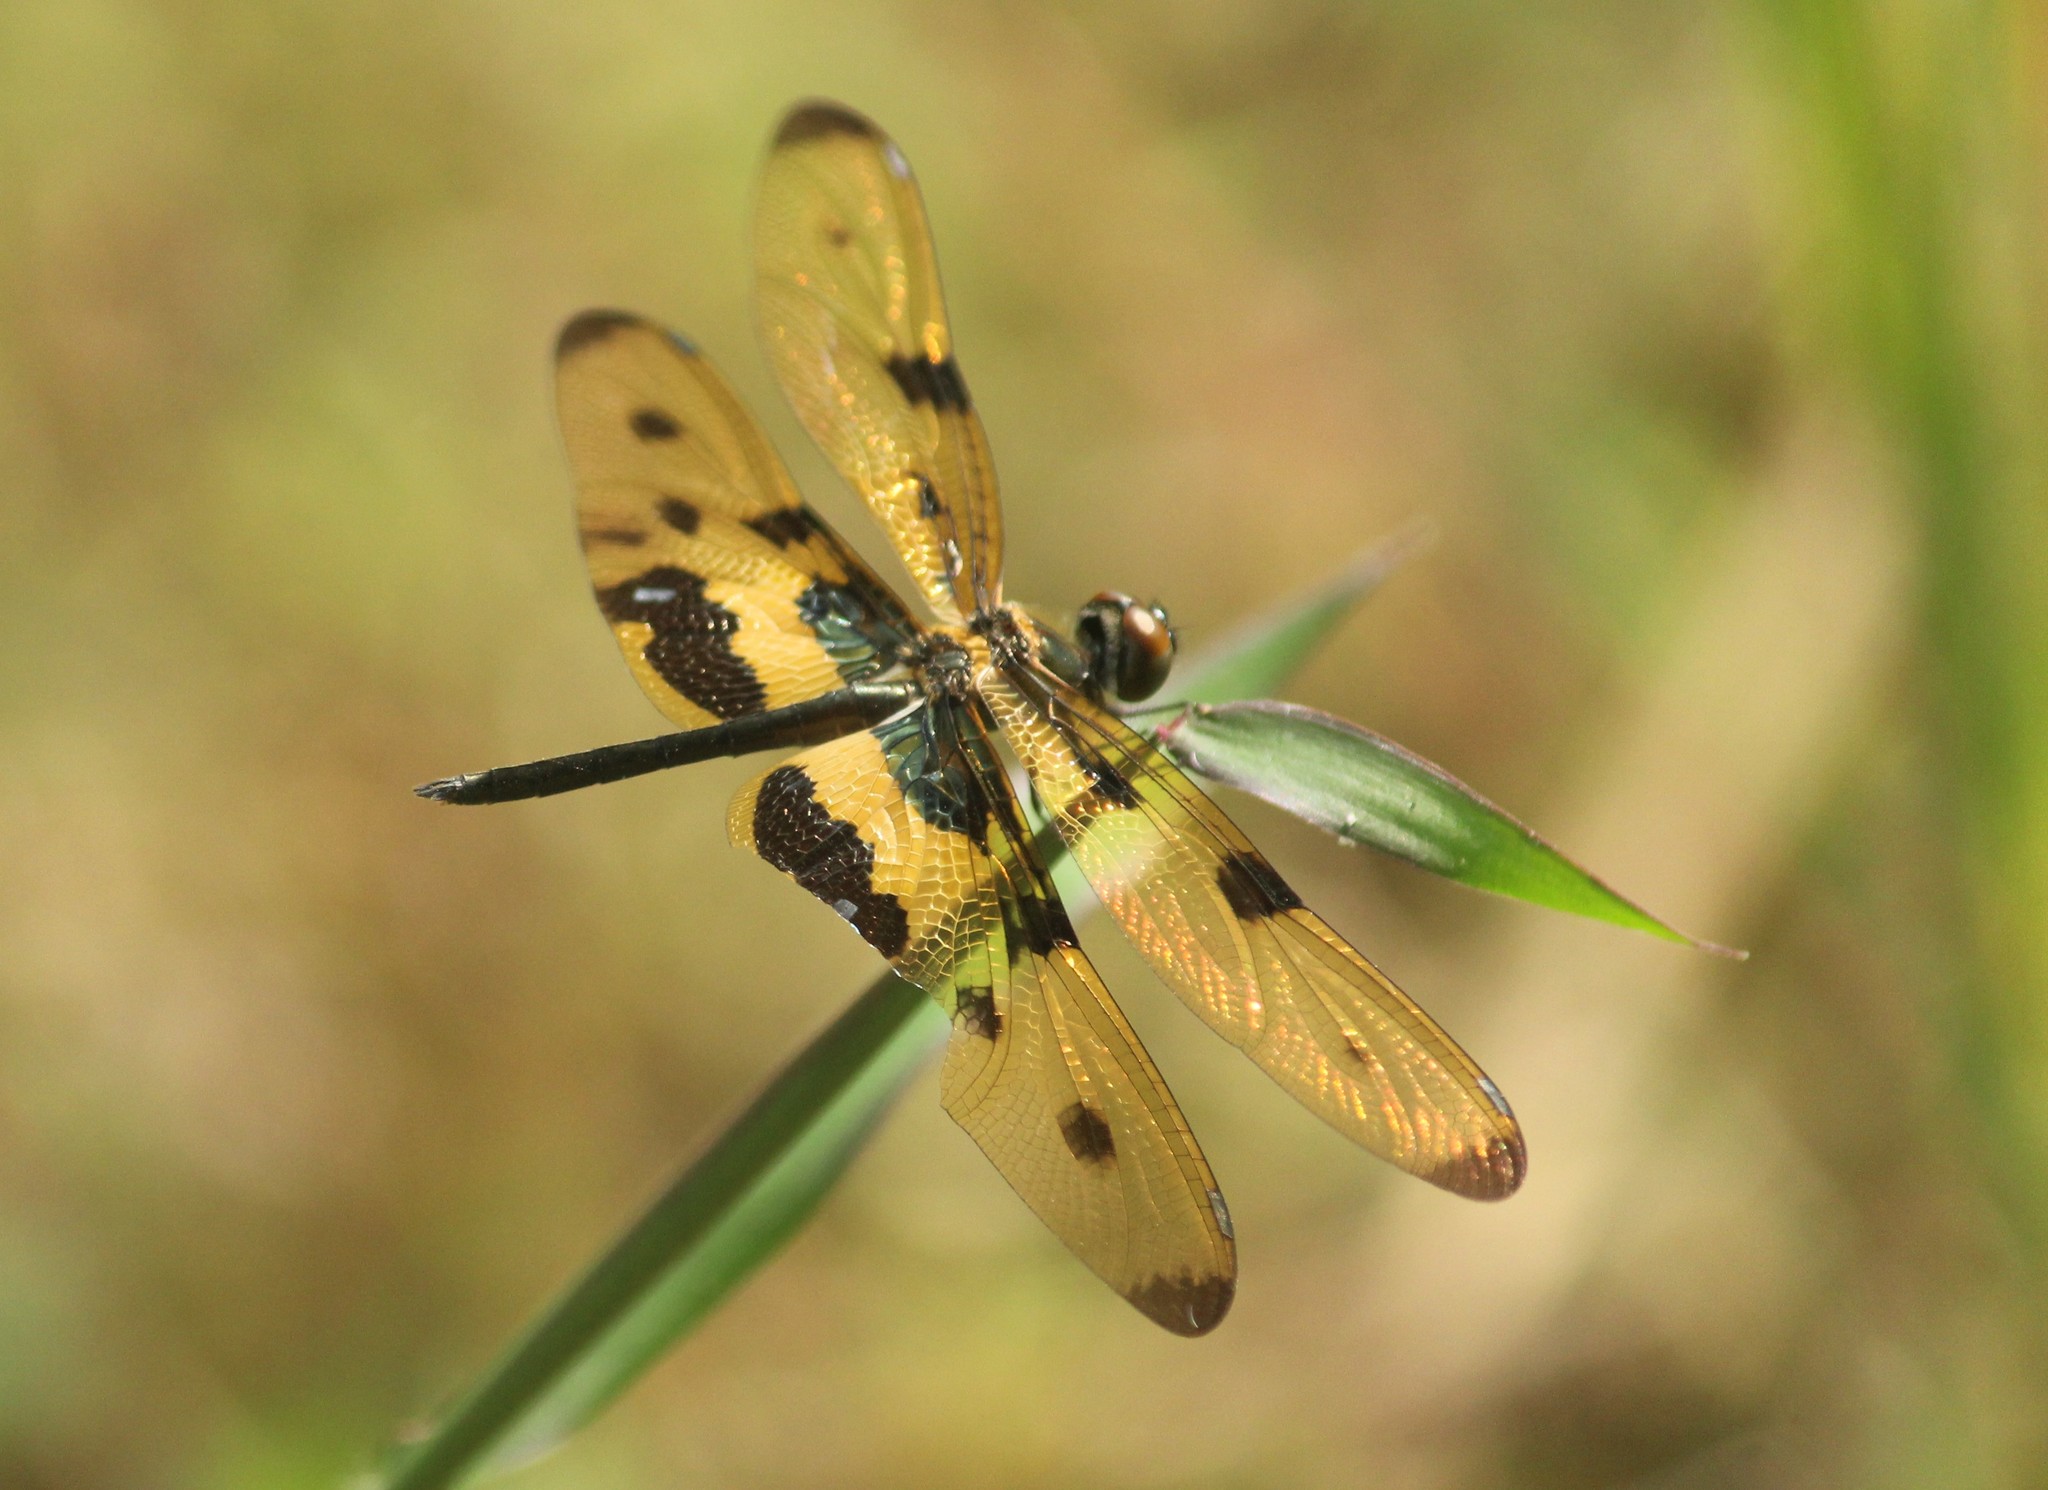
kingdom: Animalia
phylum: Arthropoda
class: Insecta
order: Odonata
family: Libellulidae
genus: Rhyothemis
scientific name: Rhyothemis variegata
